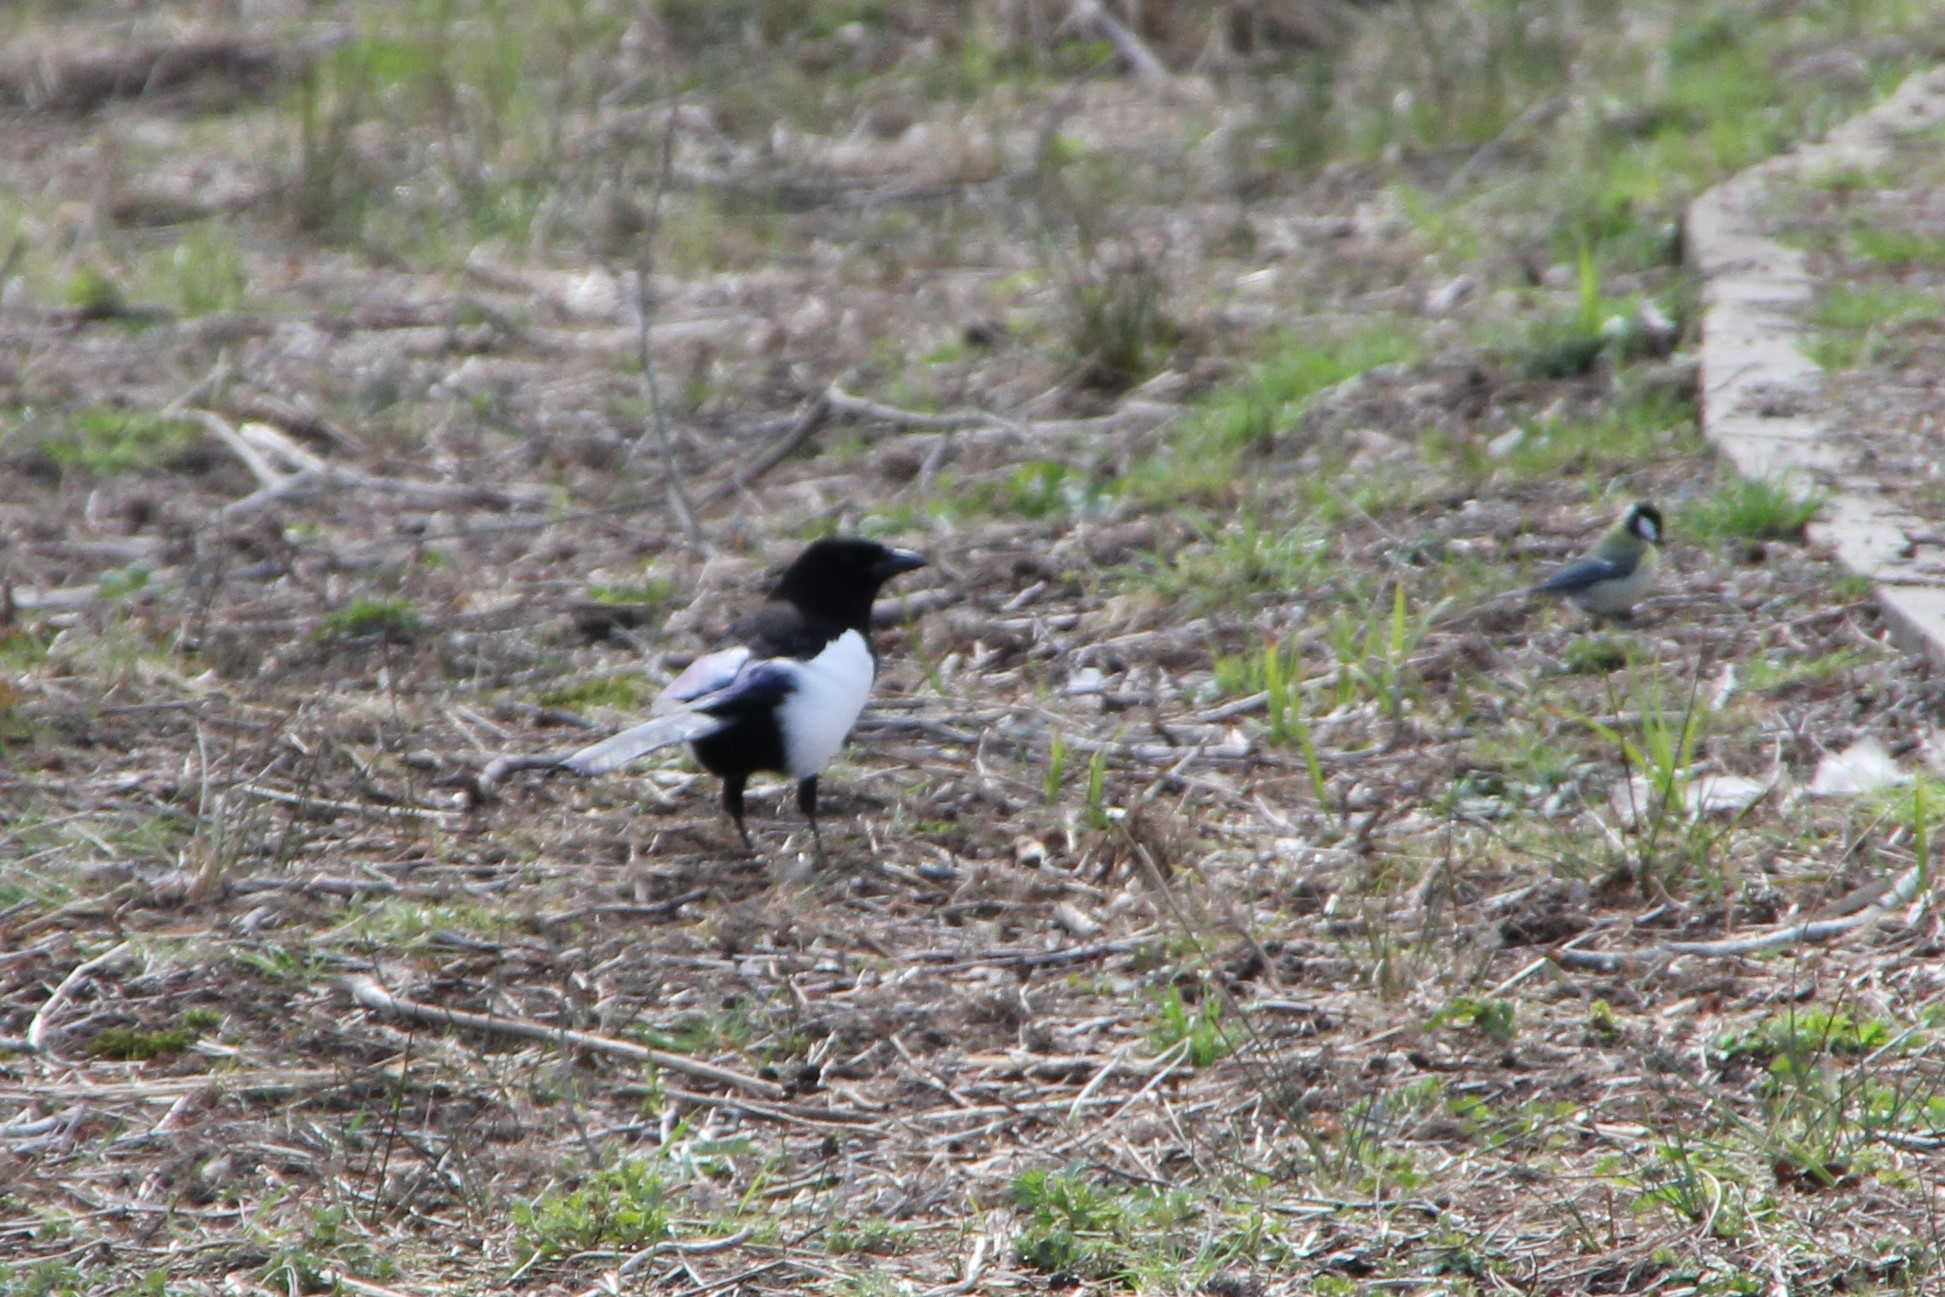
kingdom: Animalia
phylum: Chordata
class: Aves
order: Passeriformes
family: Corvidae
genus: Pica
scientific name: Pica pica
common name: Eurasian magpie
